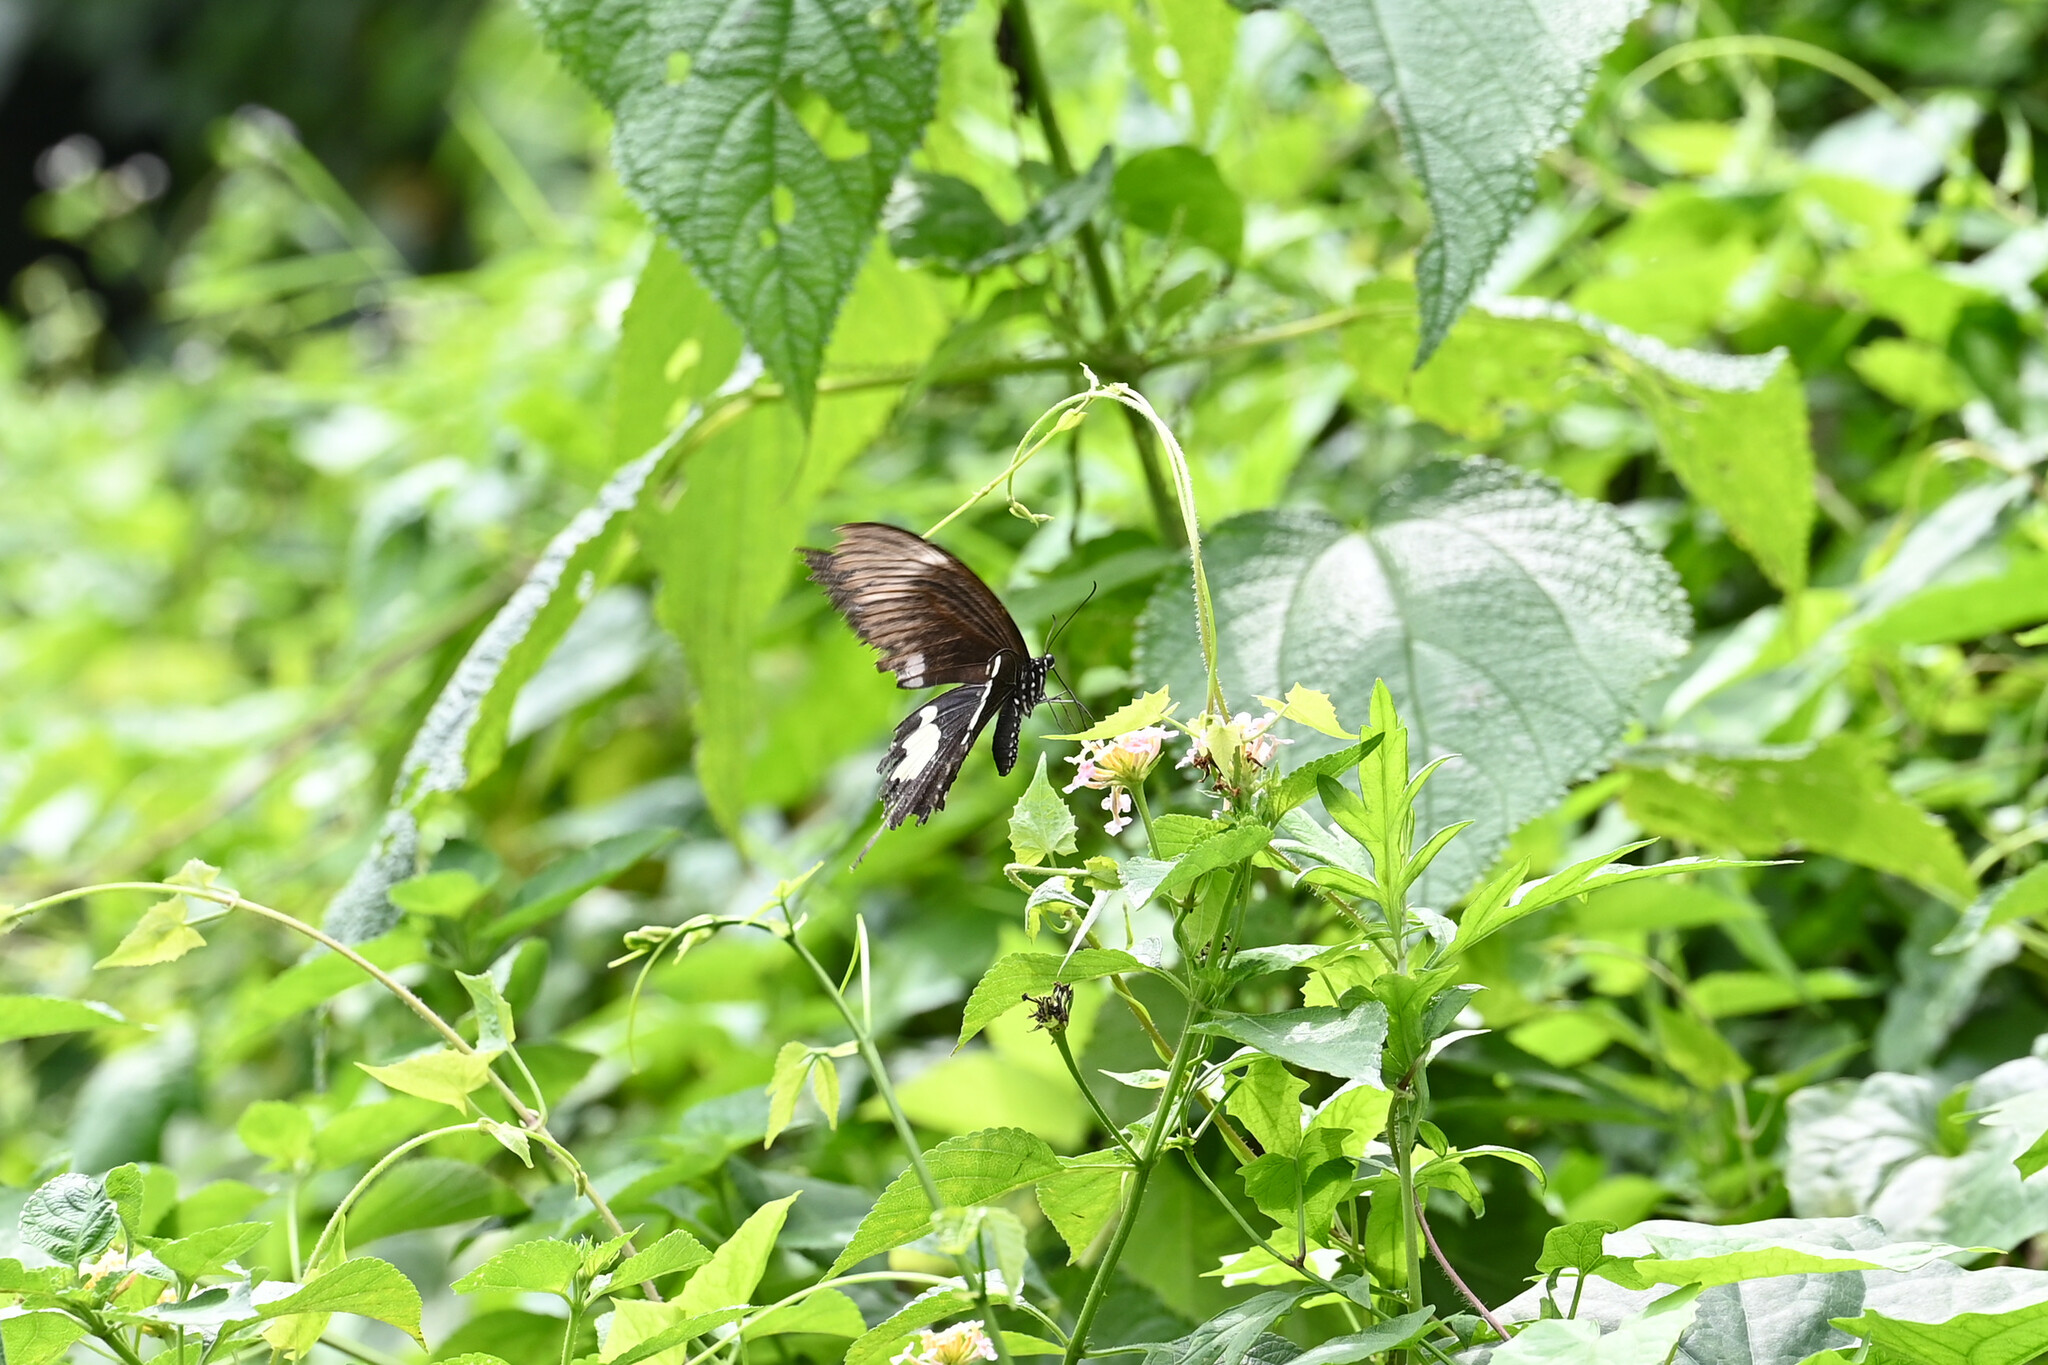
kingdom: Animalia
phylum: Arthropoda
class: Insecta
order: Lepidoptera
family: Papilionidae
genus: Atrophaneura
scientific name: Atrophaneura varuna
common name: Common batwing
